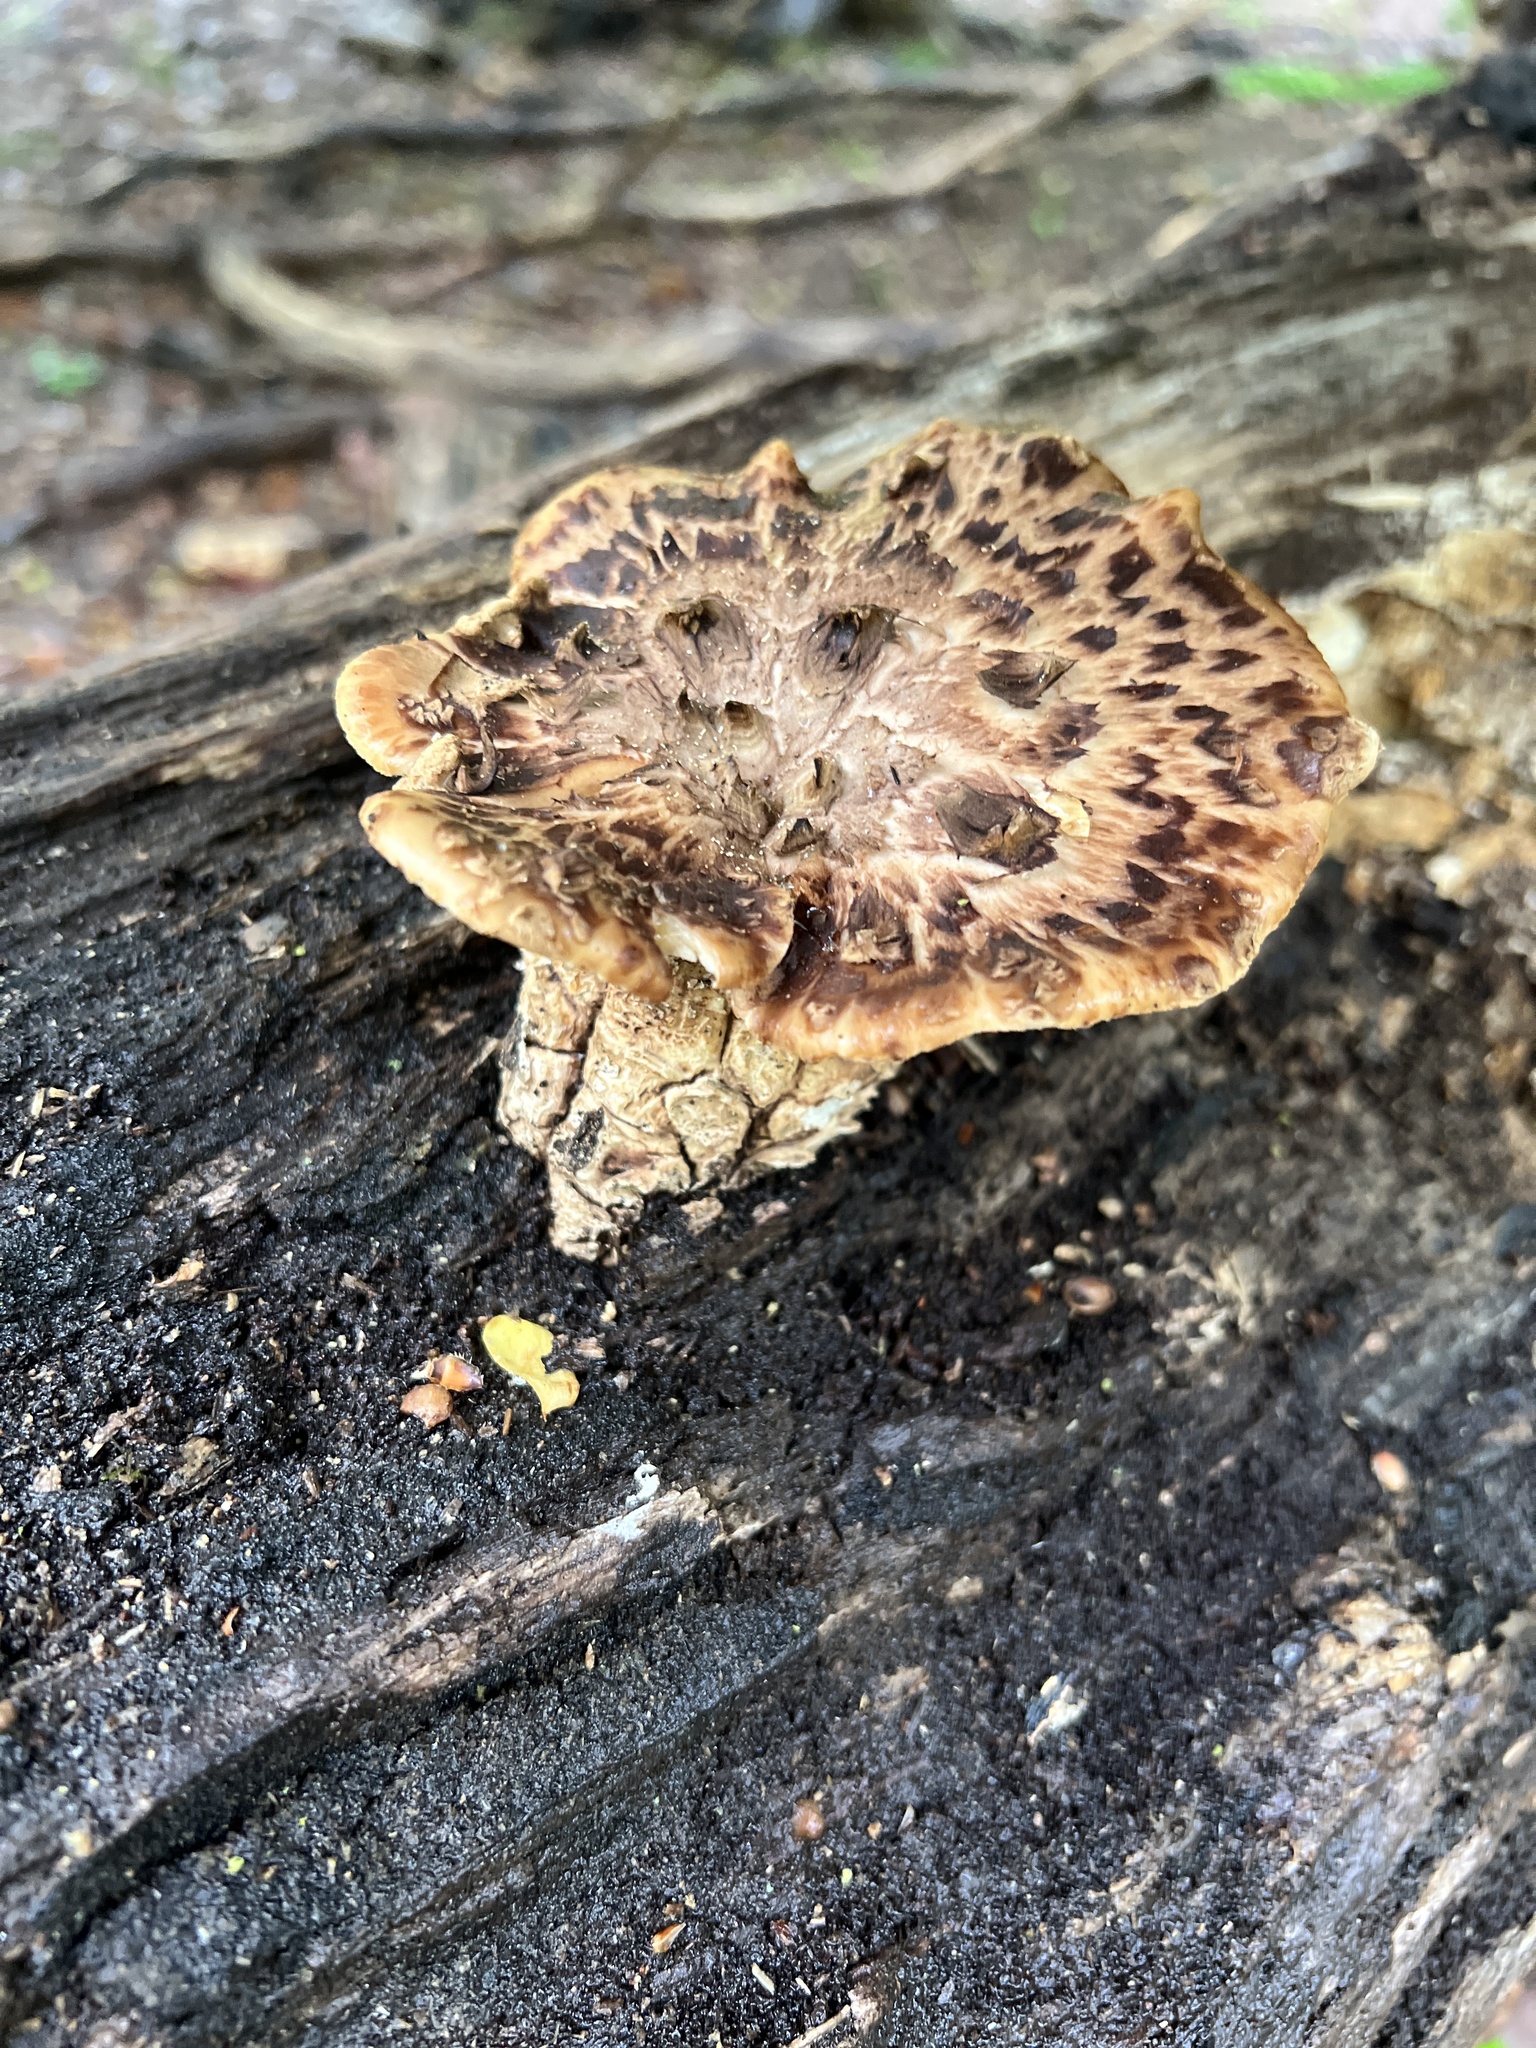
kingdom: Fungi
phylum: Basidiomycota
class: Agaricomycetes
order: Polyporales
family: Polyporaceae
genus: Cerioporus
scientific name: Cerioporus squamosus
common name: Dryad's saddle
